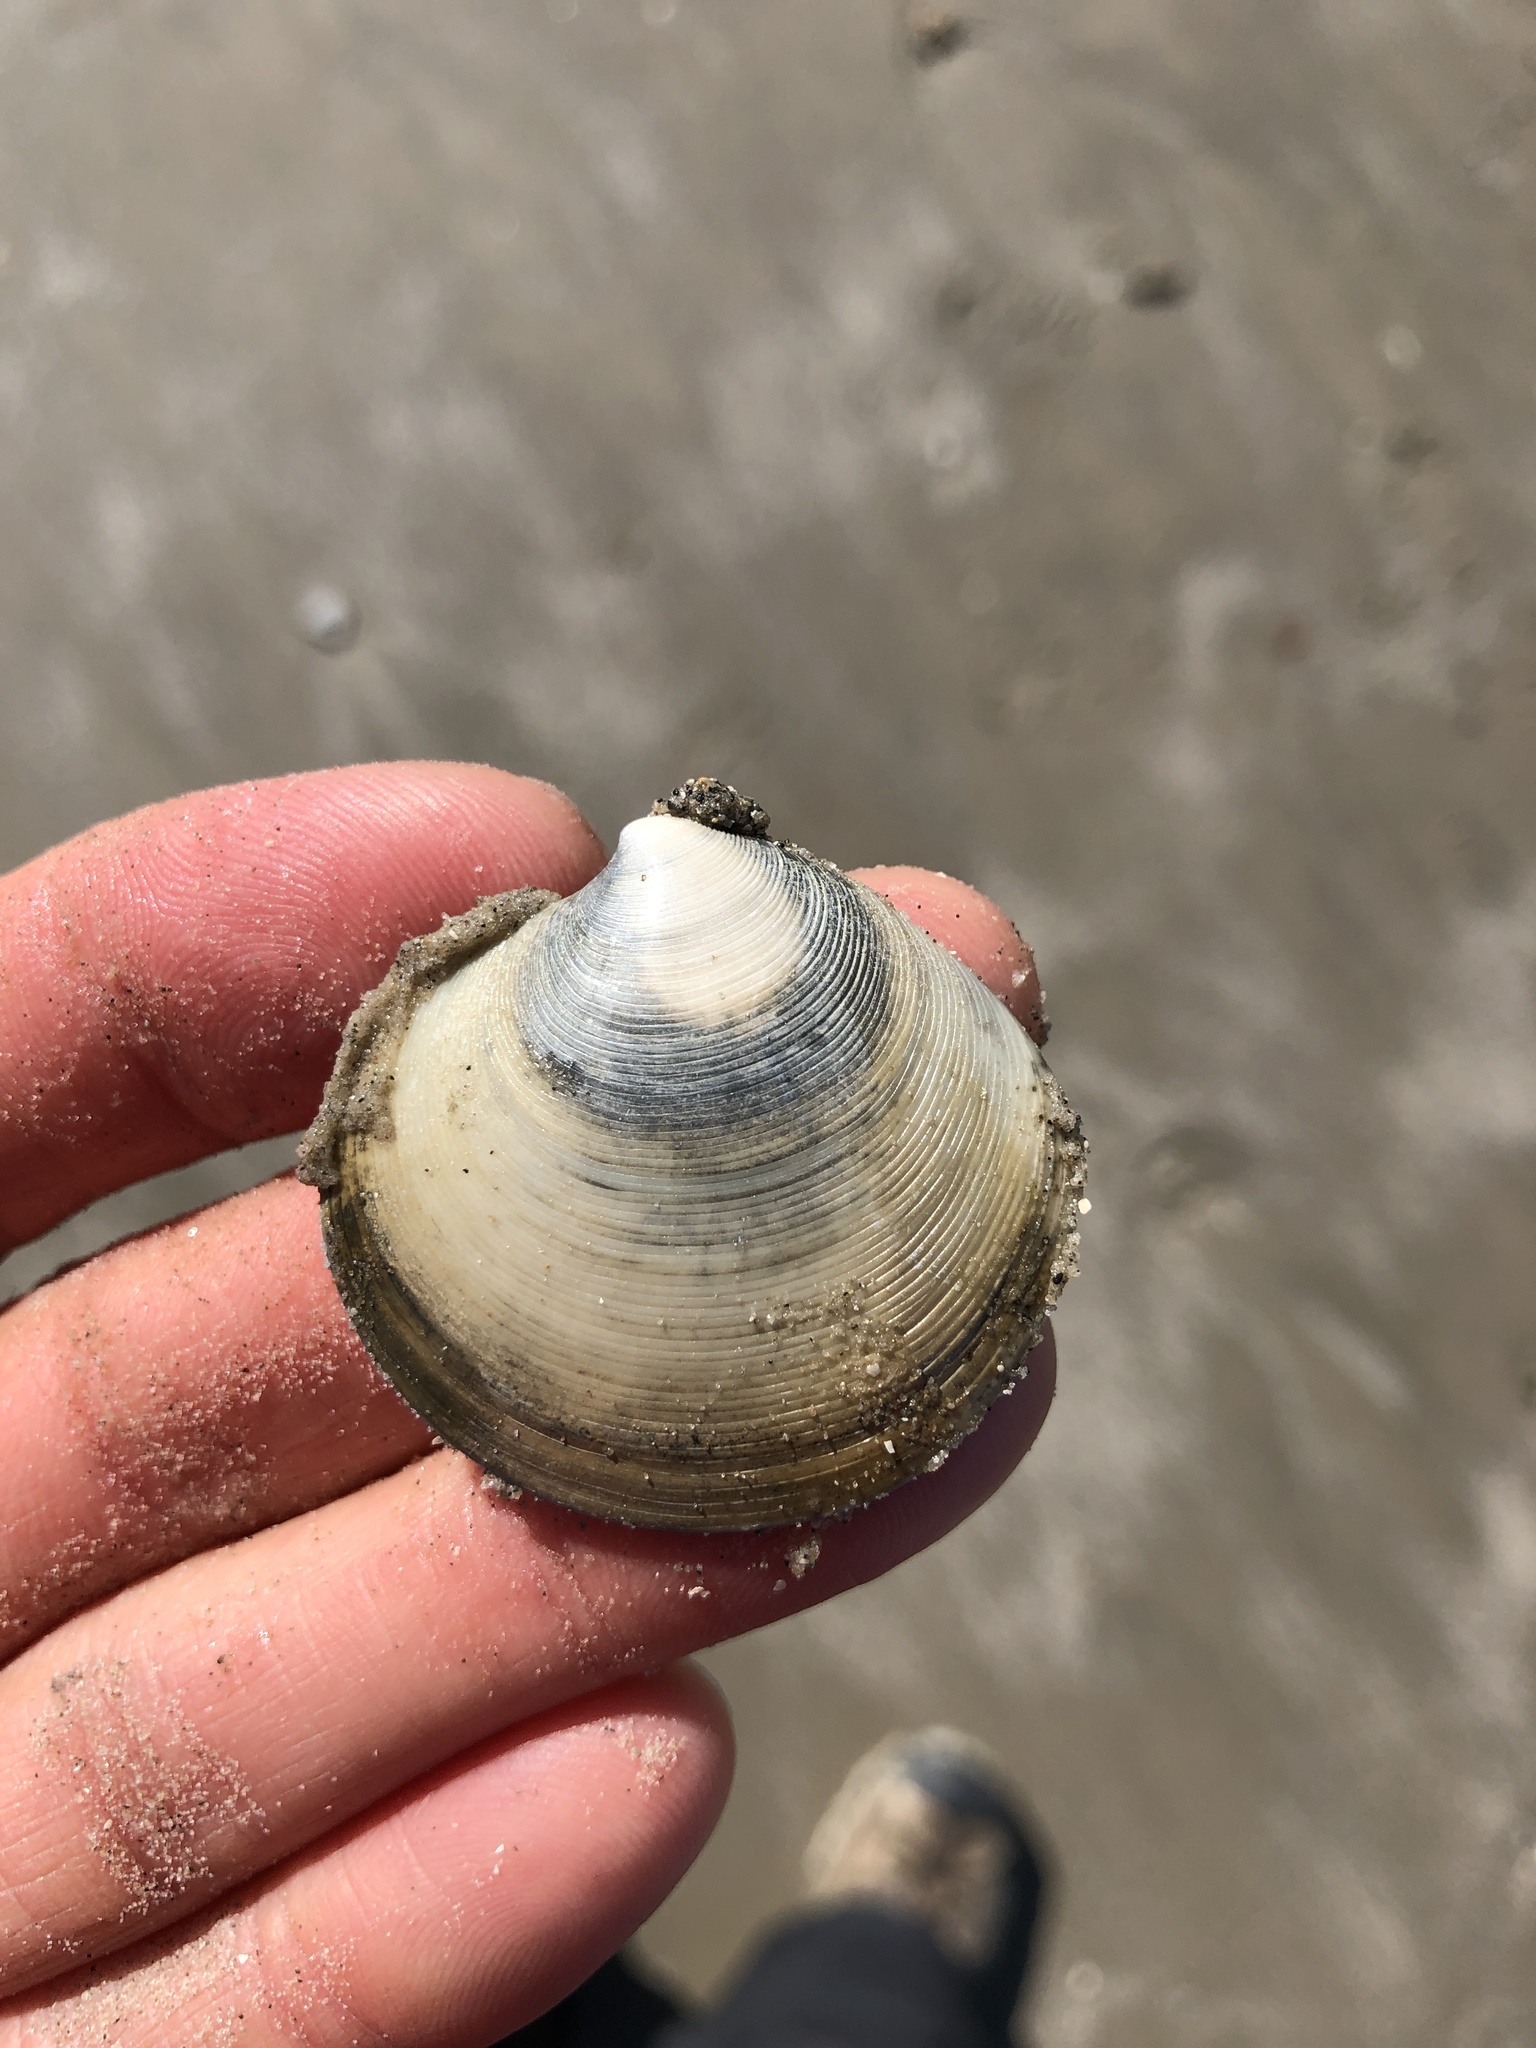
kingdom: Animalia
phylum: Mollusca
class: Bivalvia
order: Venerida
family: Veneridae
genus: Dosinia
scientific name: Dosinia discus
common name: Disk dosinia
